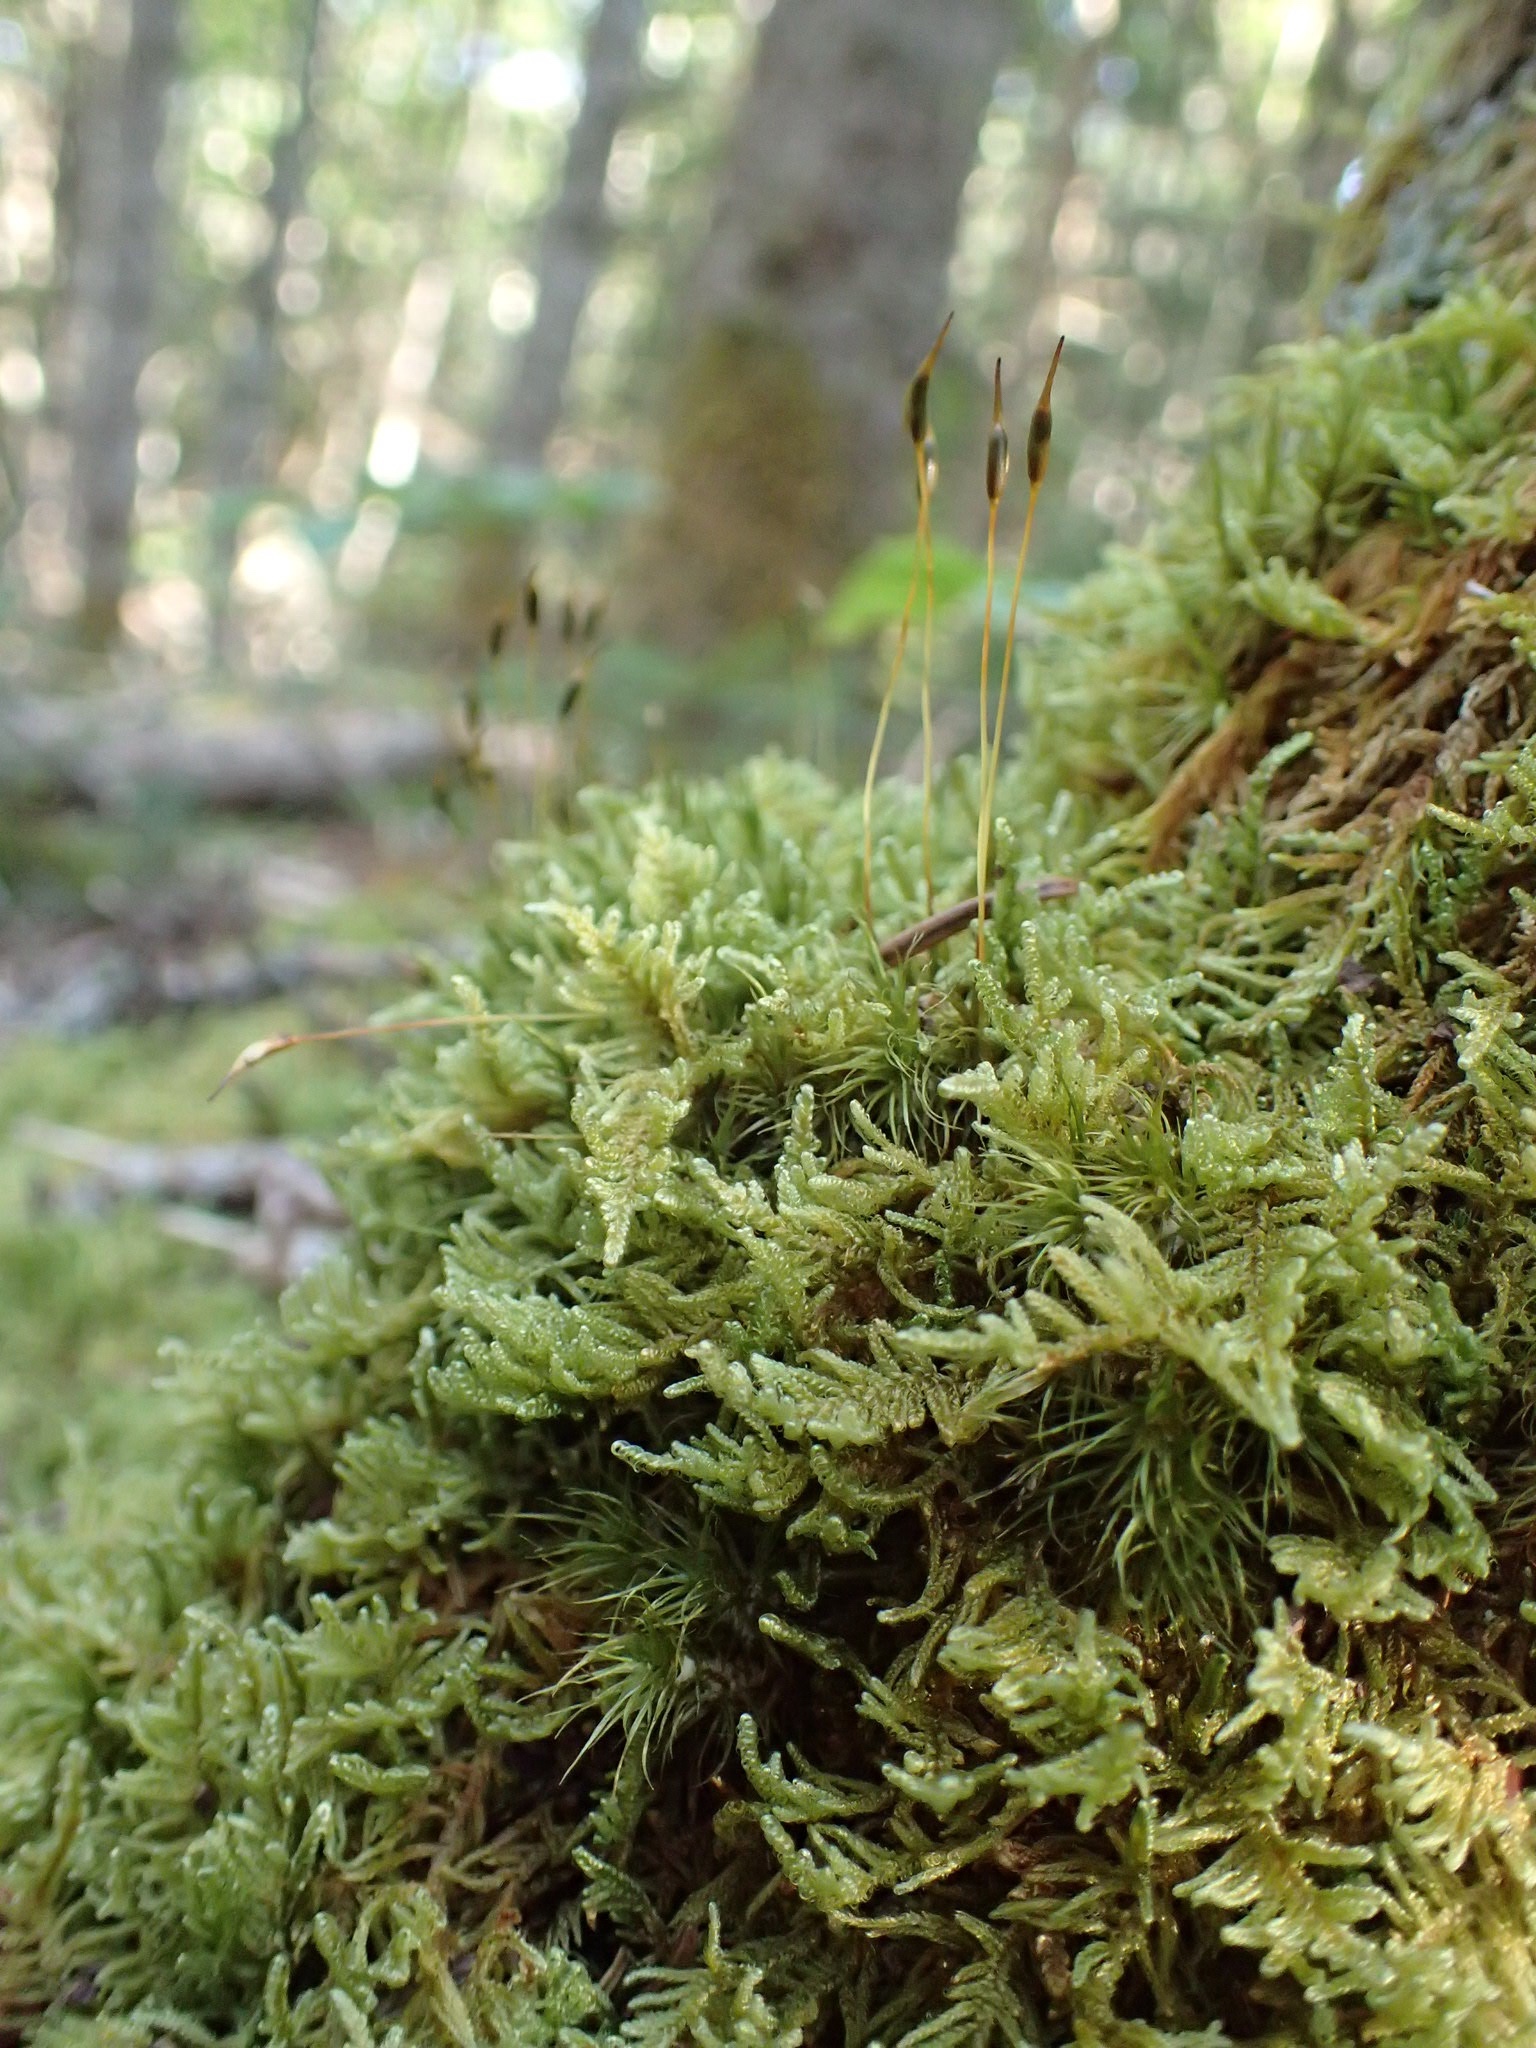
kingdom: Plantae
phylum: Bryophyta
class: Bryopsida
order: Hypnales
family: Callicladiaceae
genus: Callicladium
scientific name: Callicladium imponens
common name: Brocade moss
